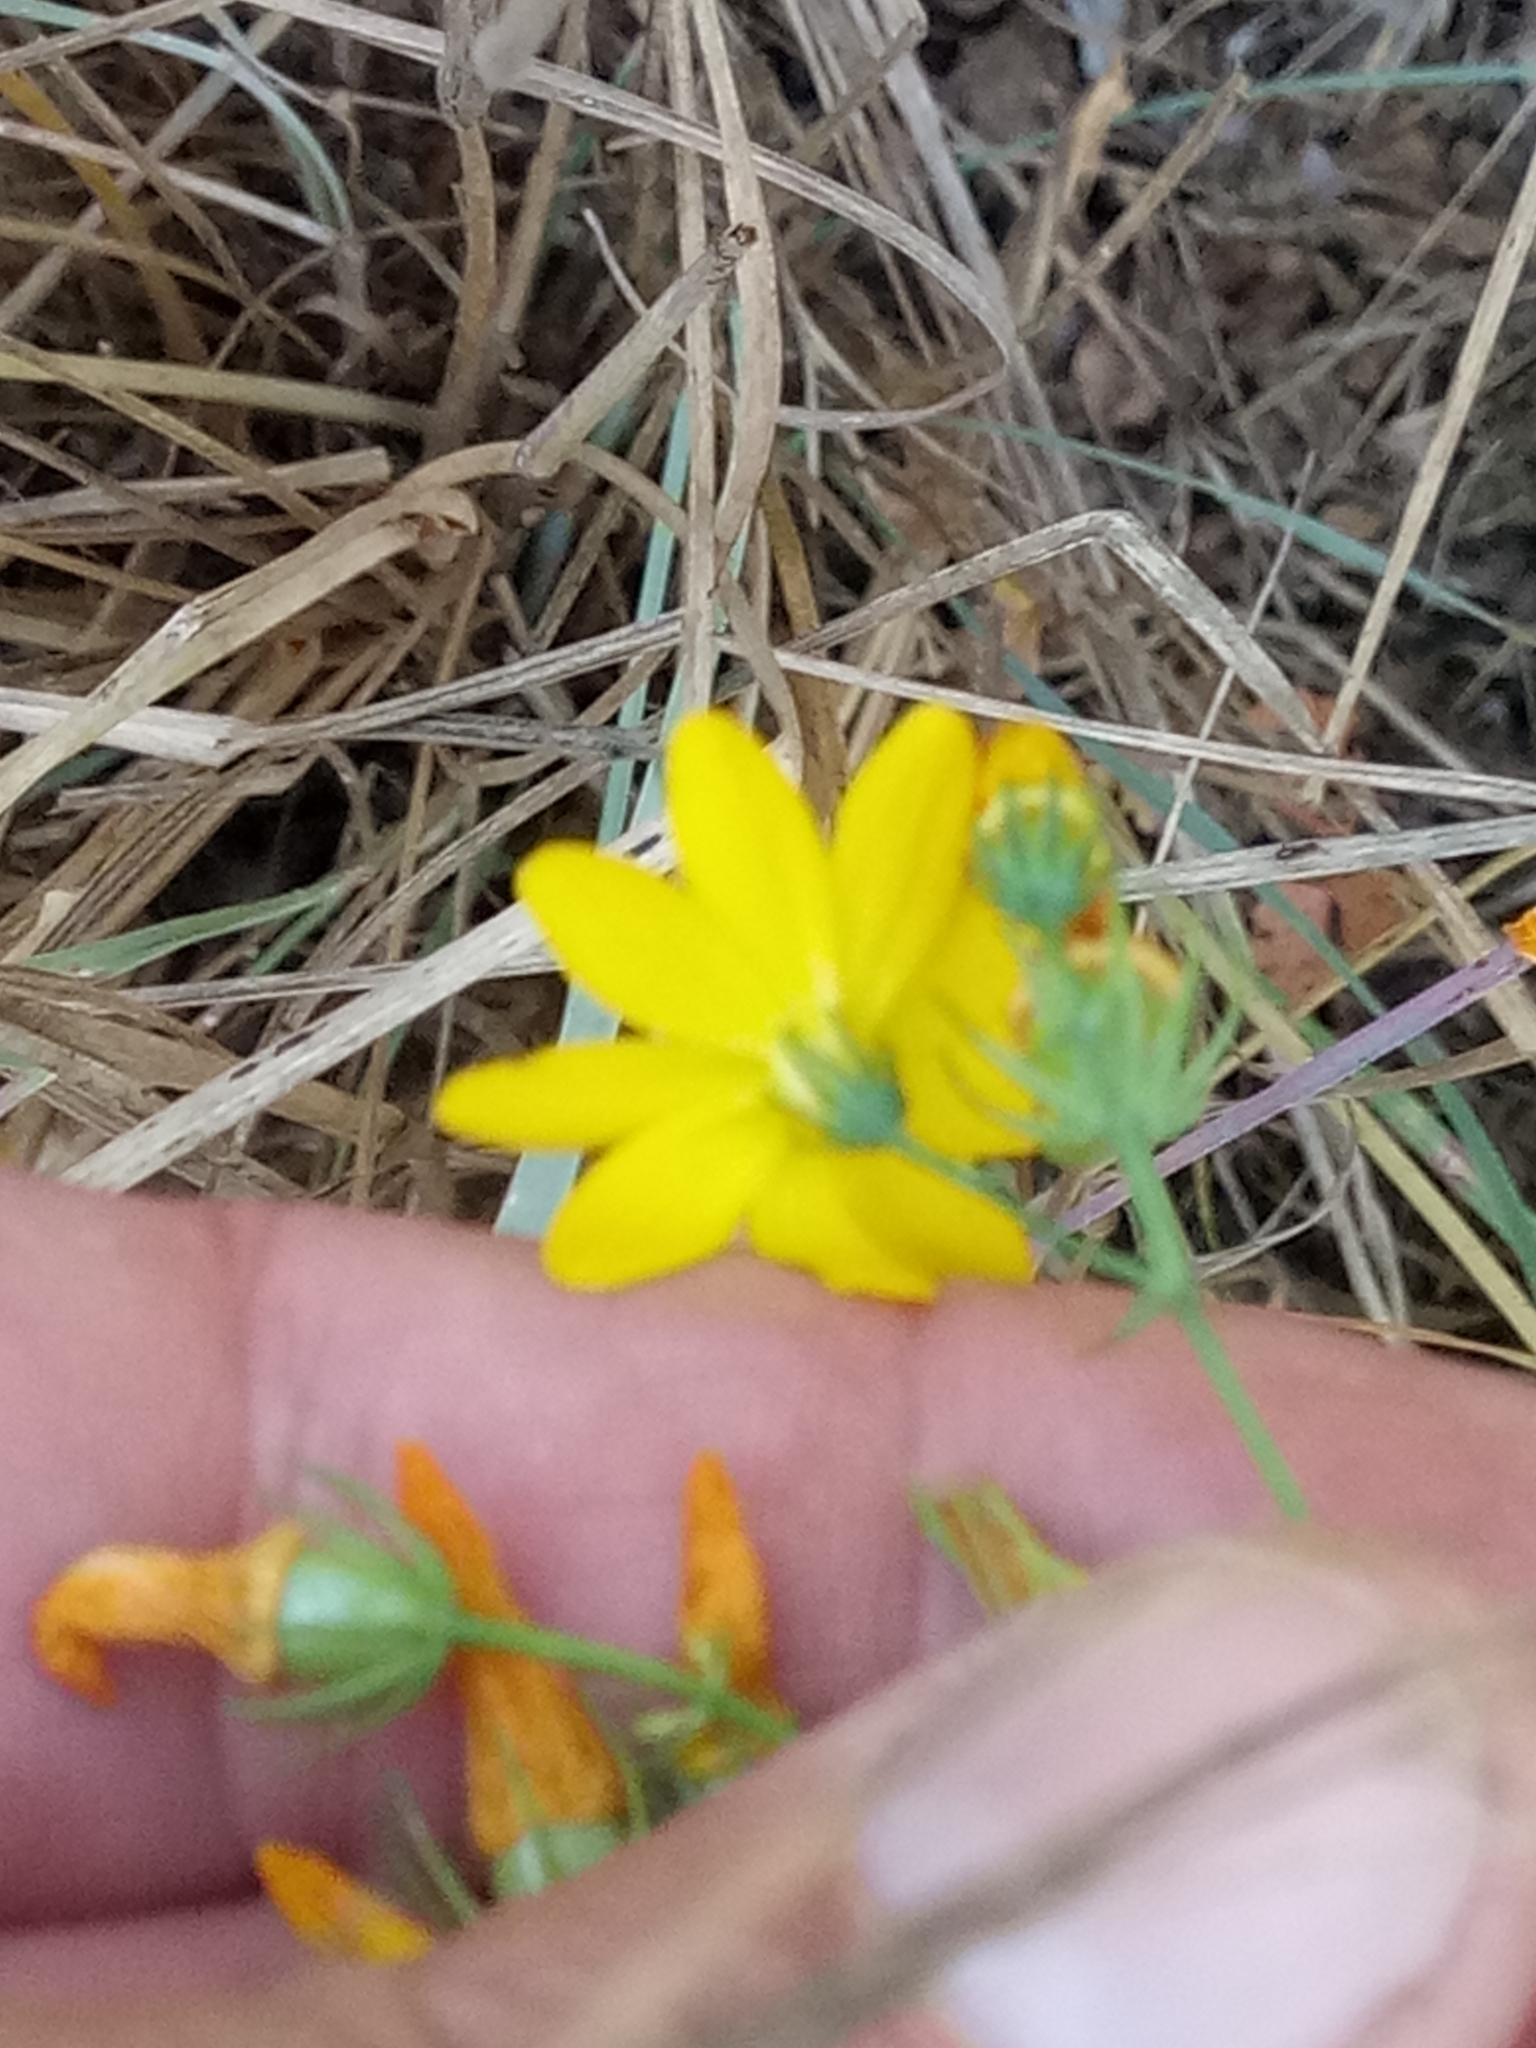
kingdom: Plantae
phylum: Tracheophyta
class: Magnoliopsida
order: Gentianales
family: Gentianaceae
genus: Blackstonia
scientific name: Blackstonia grandiflora
